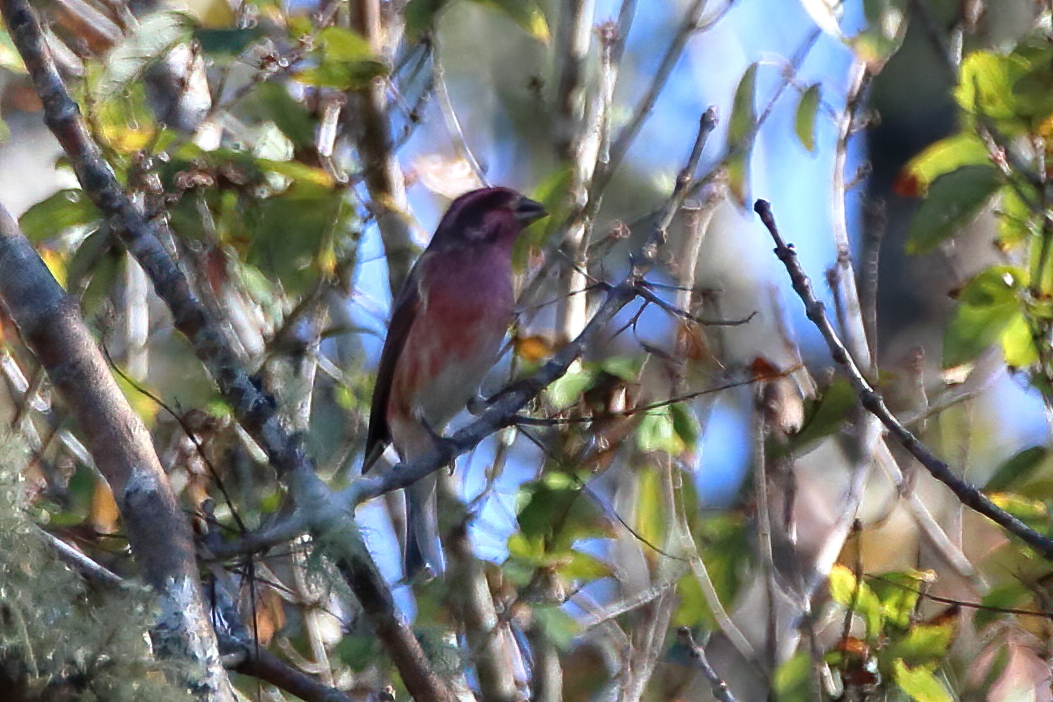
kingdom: Animalia
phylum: Chordata
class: Aves
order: Passeriformes
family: Fringillidae
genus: Haemorhous
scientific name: Haemorhous purpureus
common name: Purple finch
